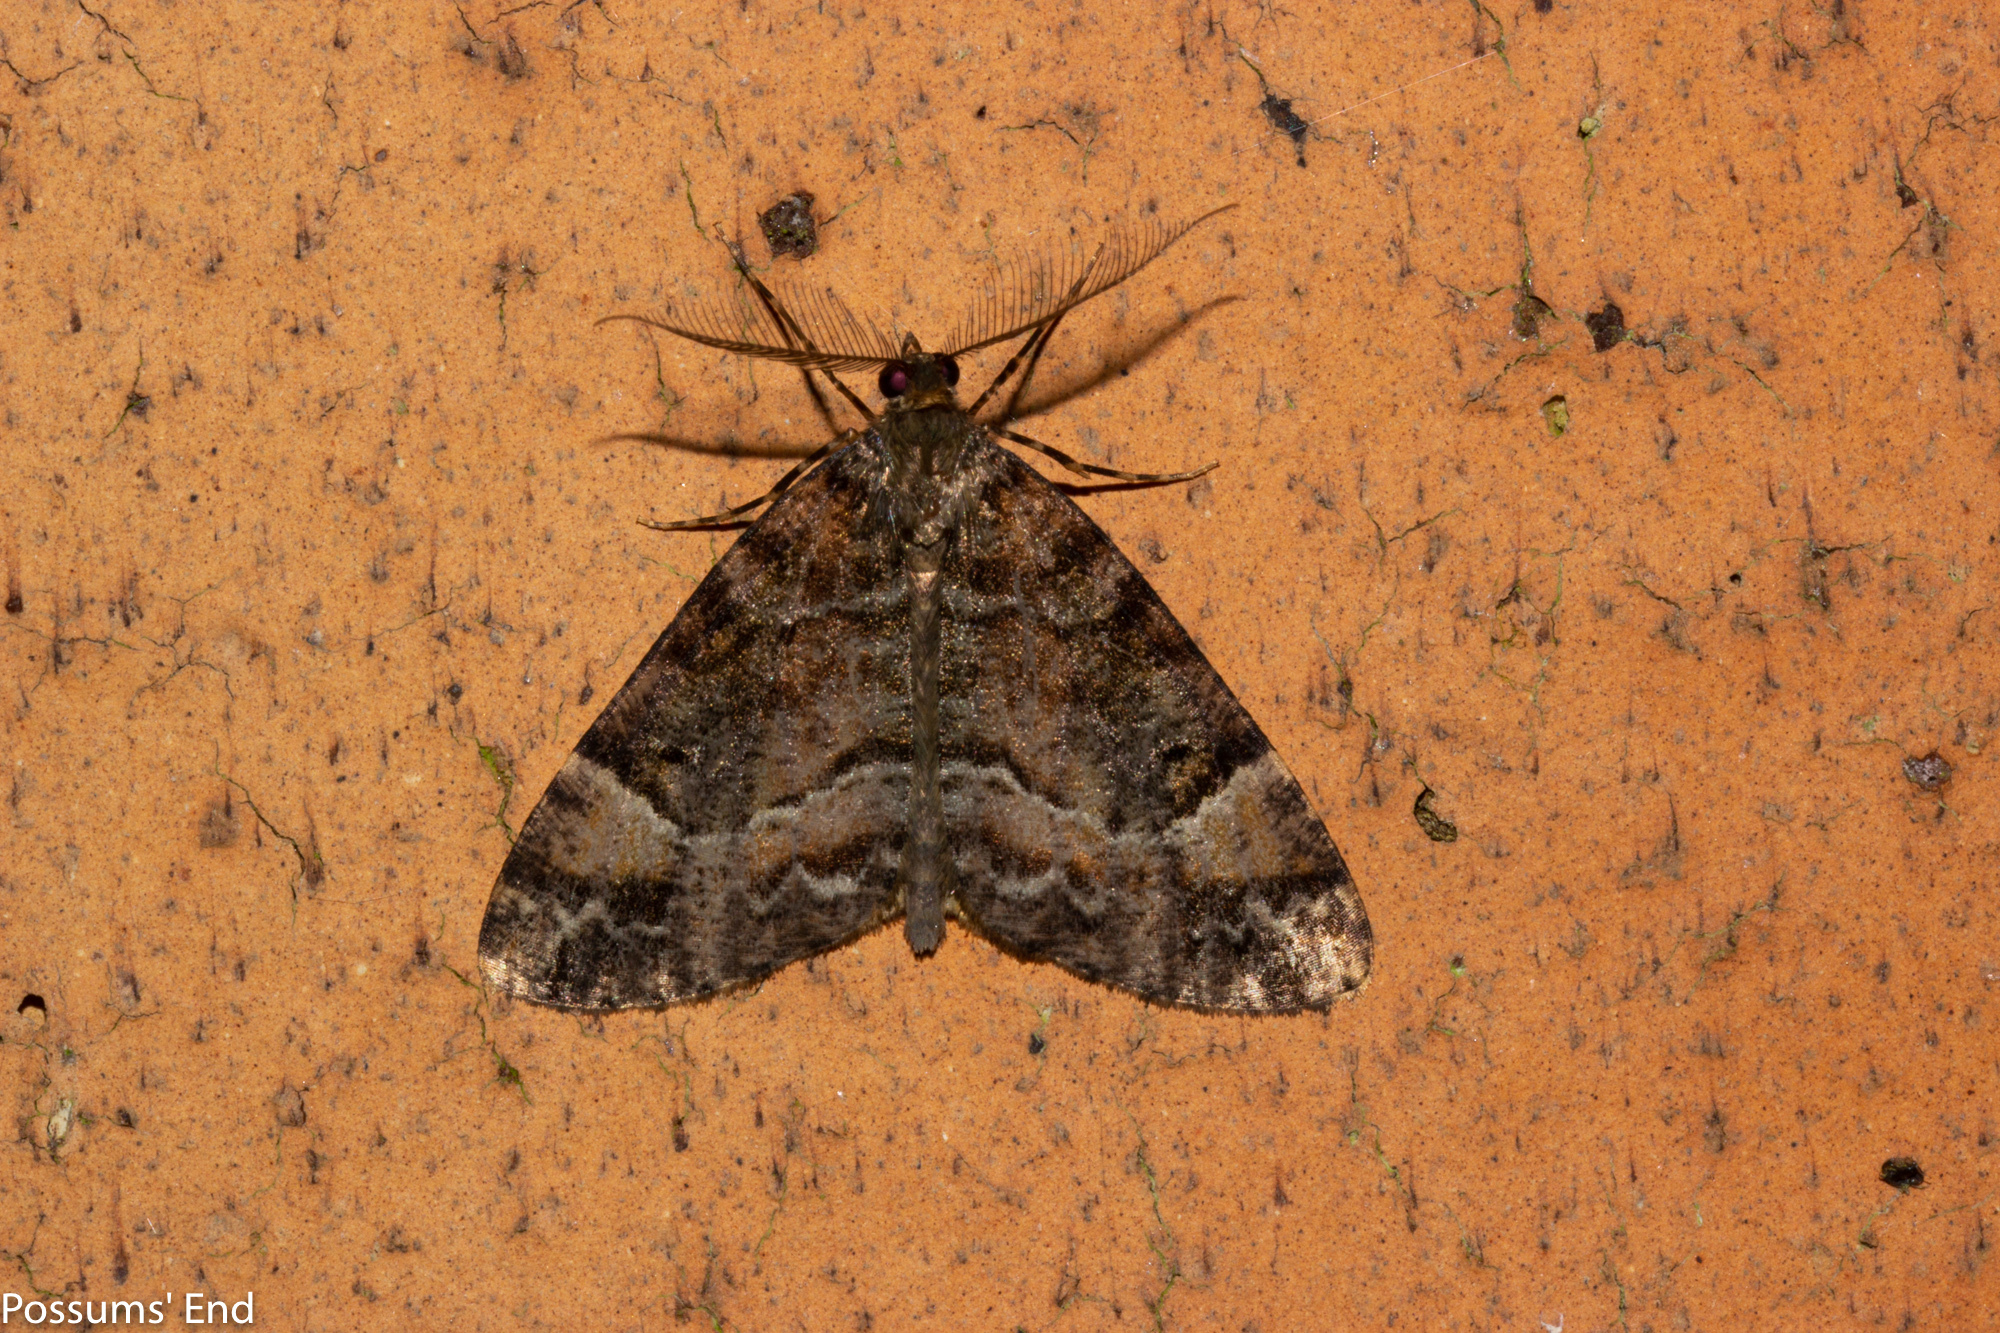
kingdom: Animalia
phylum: Arthropoda
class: Insecta
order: Lepidoptera
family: Geometridae
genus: Pseudocoremia
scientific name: Pseudocoremia productata
